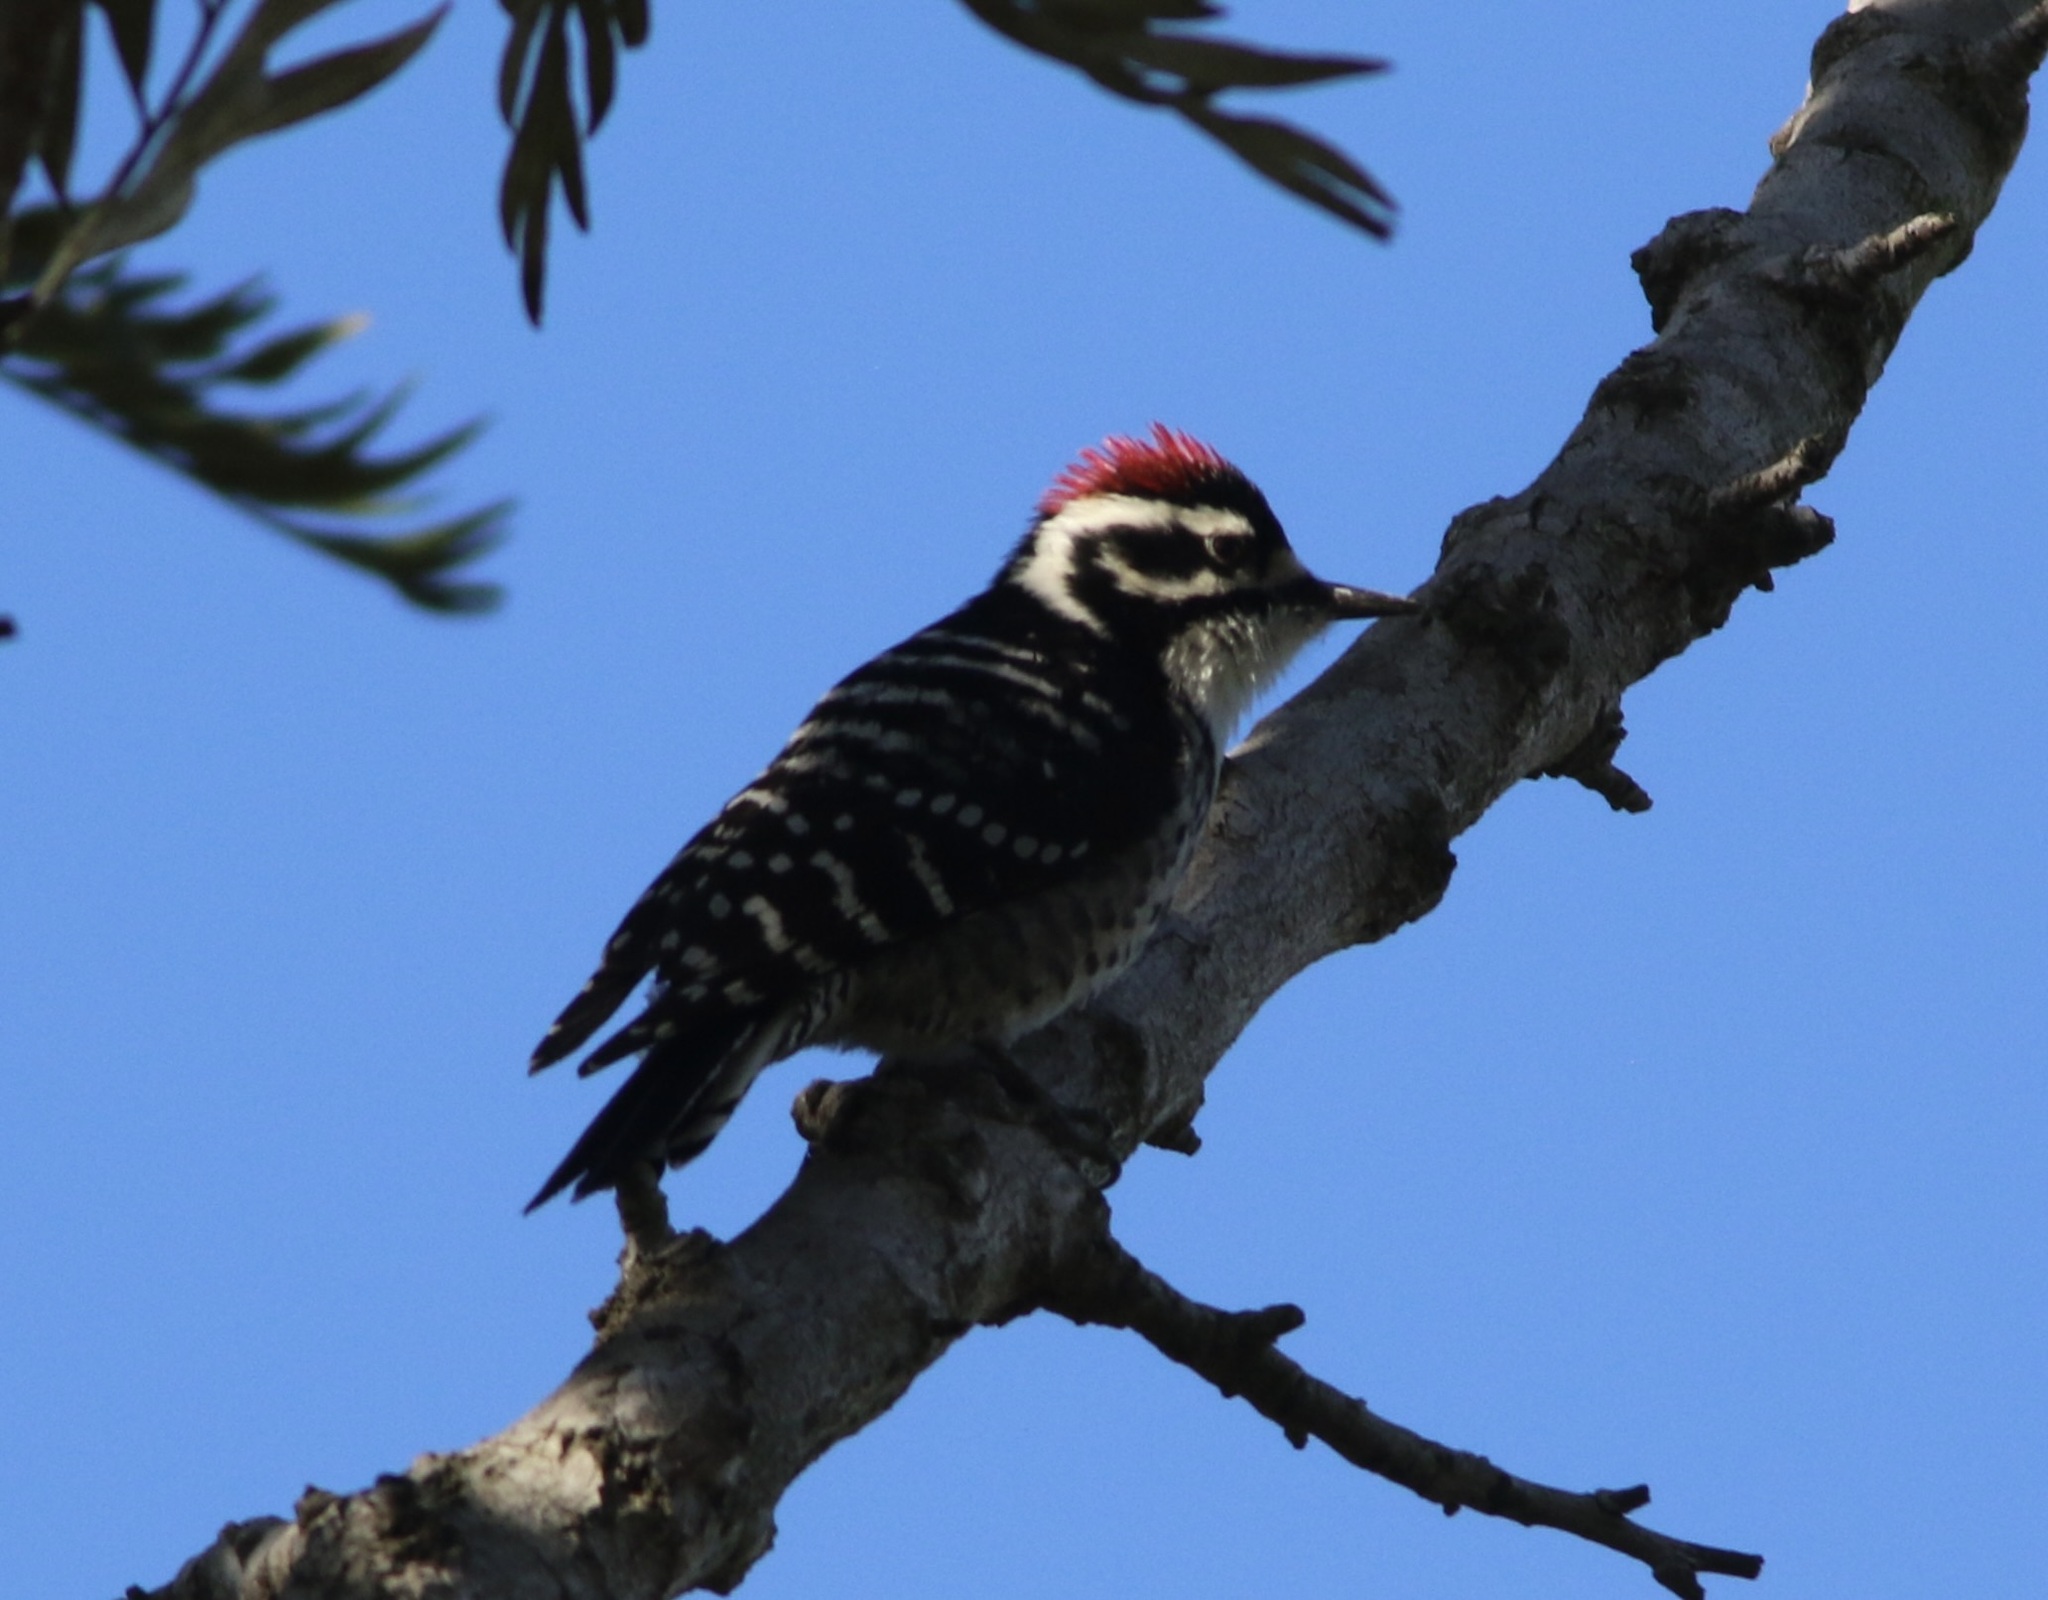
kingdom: Animalia
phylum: Chordata
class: Aves
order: Piciformes
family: Picidae
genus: Dryobates
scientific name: Dryobates nuttallii
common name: Nuttall's woodpecker
